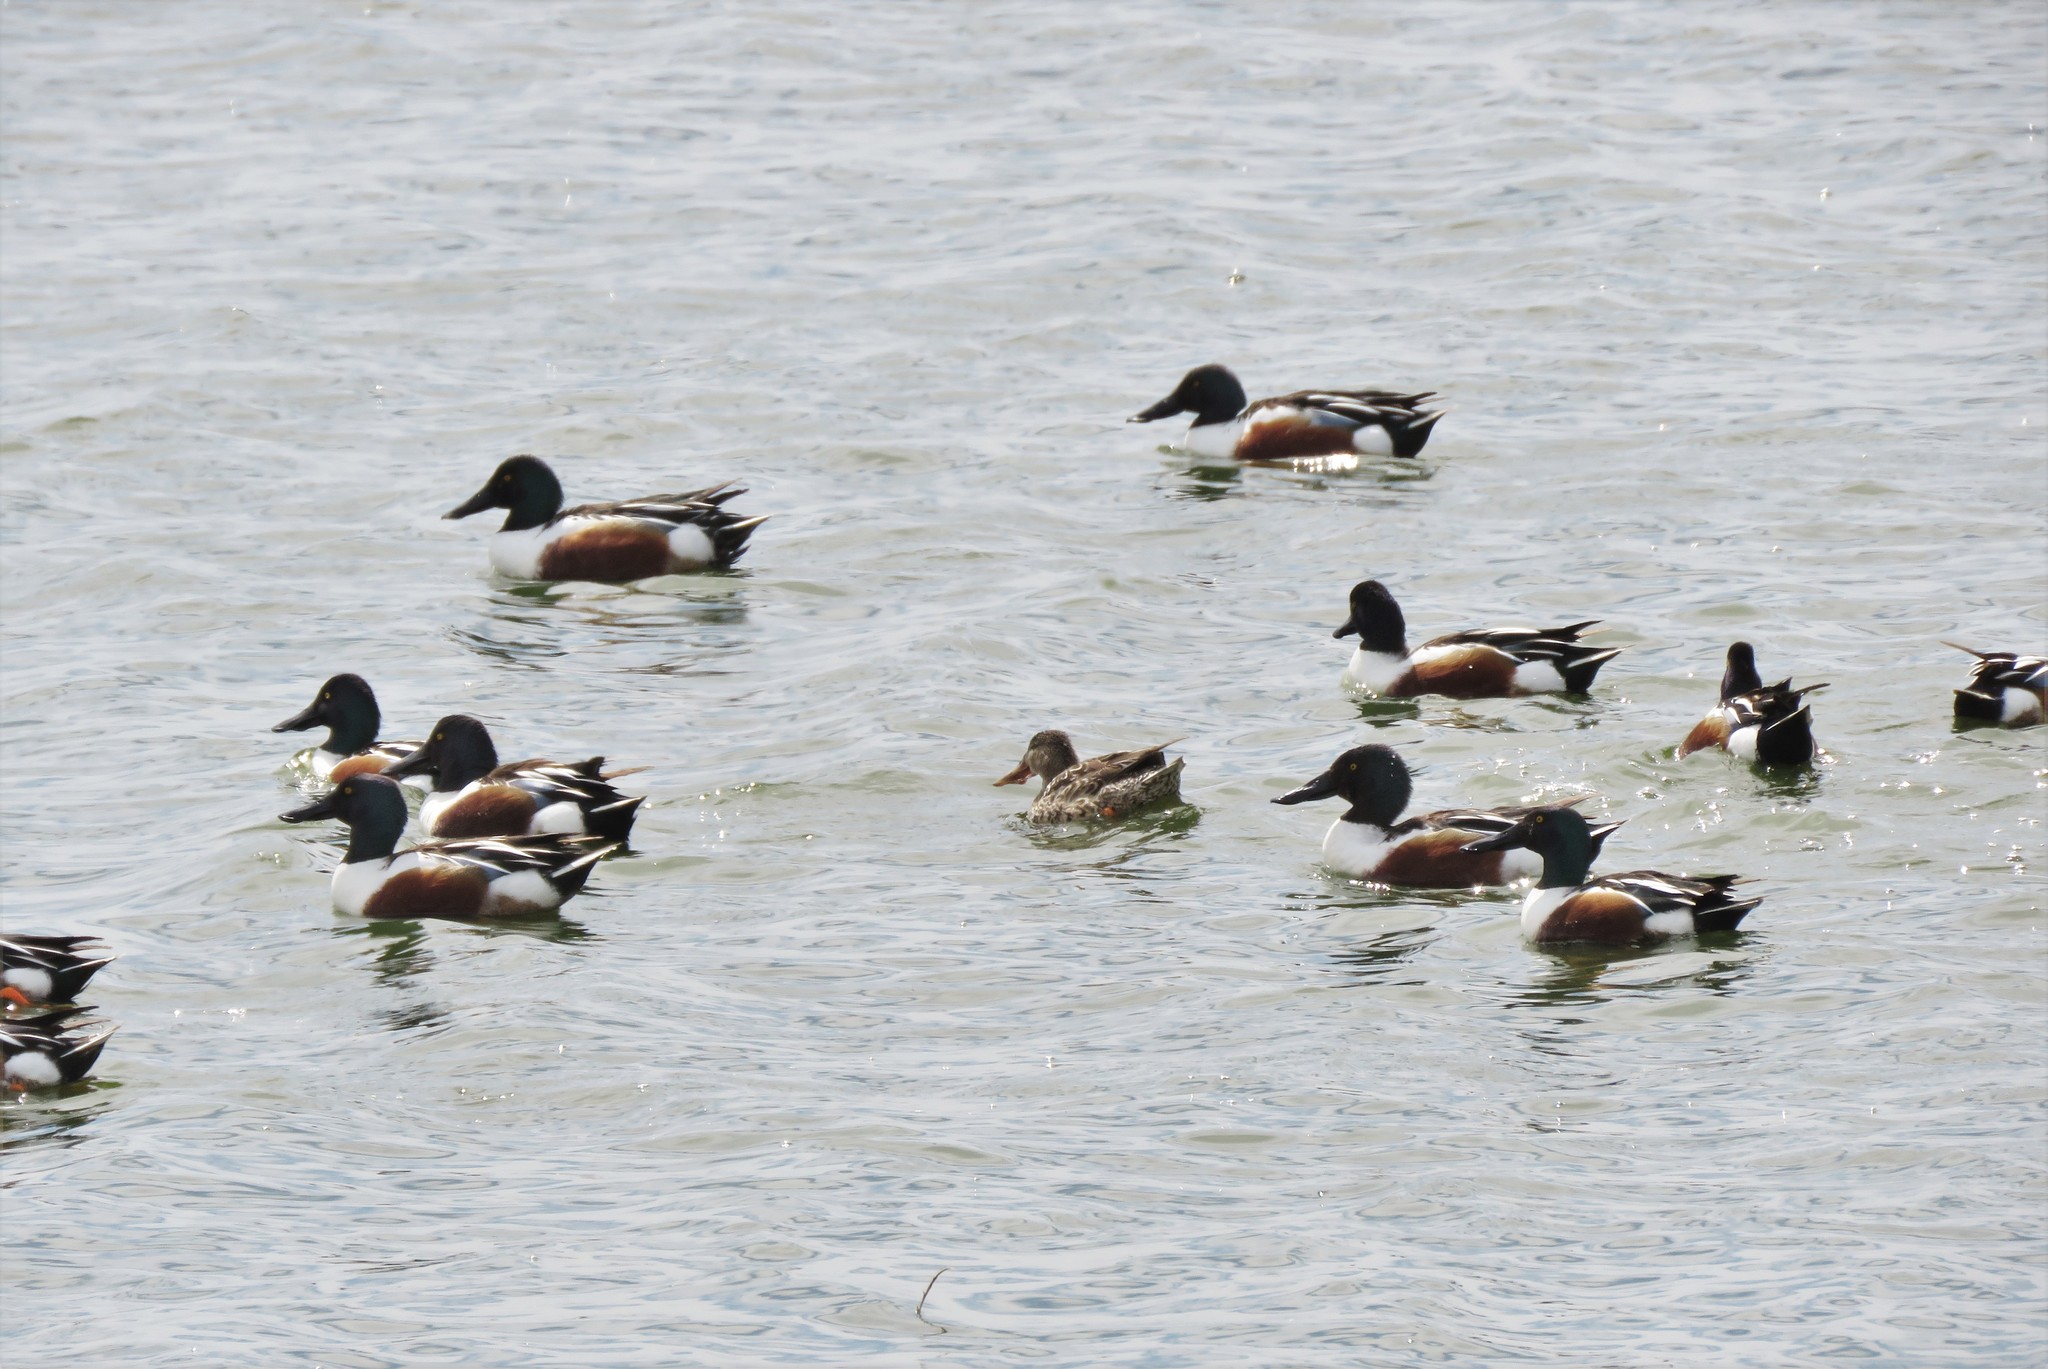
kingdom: Animalia
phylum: Chordata
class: Aves
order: Anseriformes
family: Anatidae
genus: Spatula
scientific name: Spatula clypeata
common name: Northern shoveler
